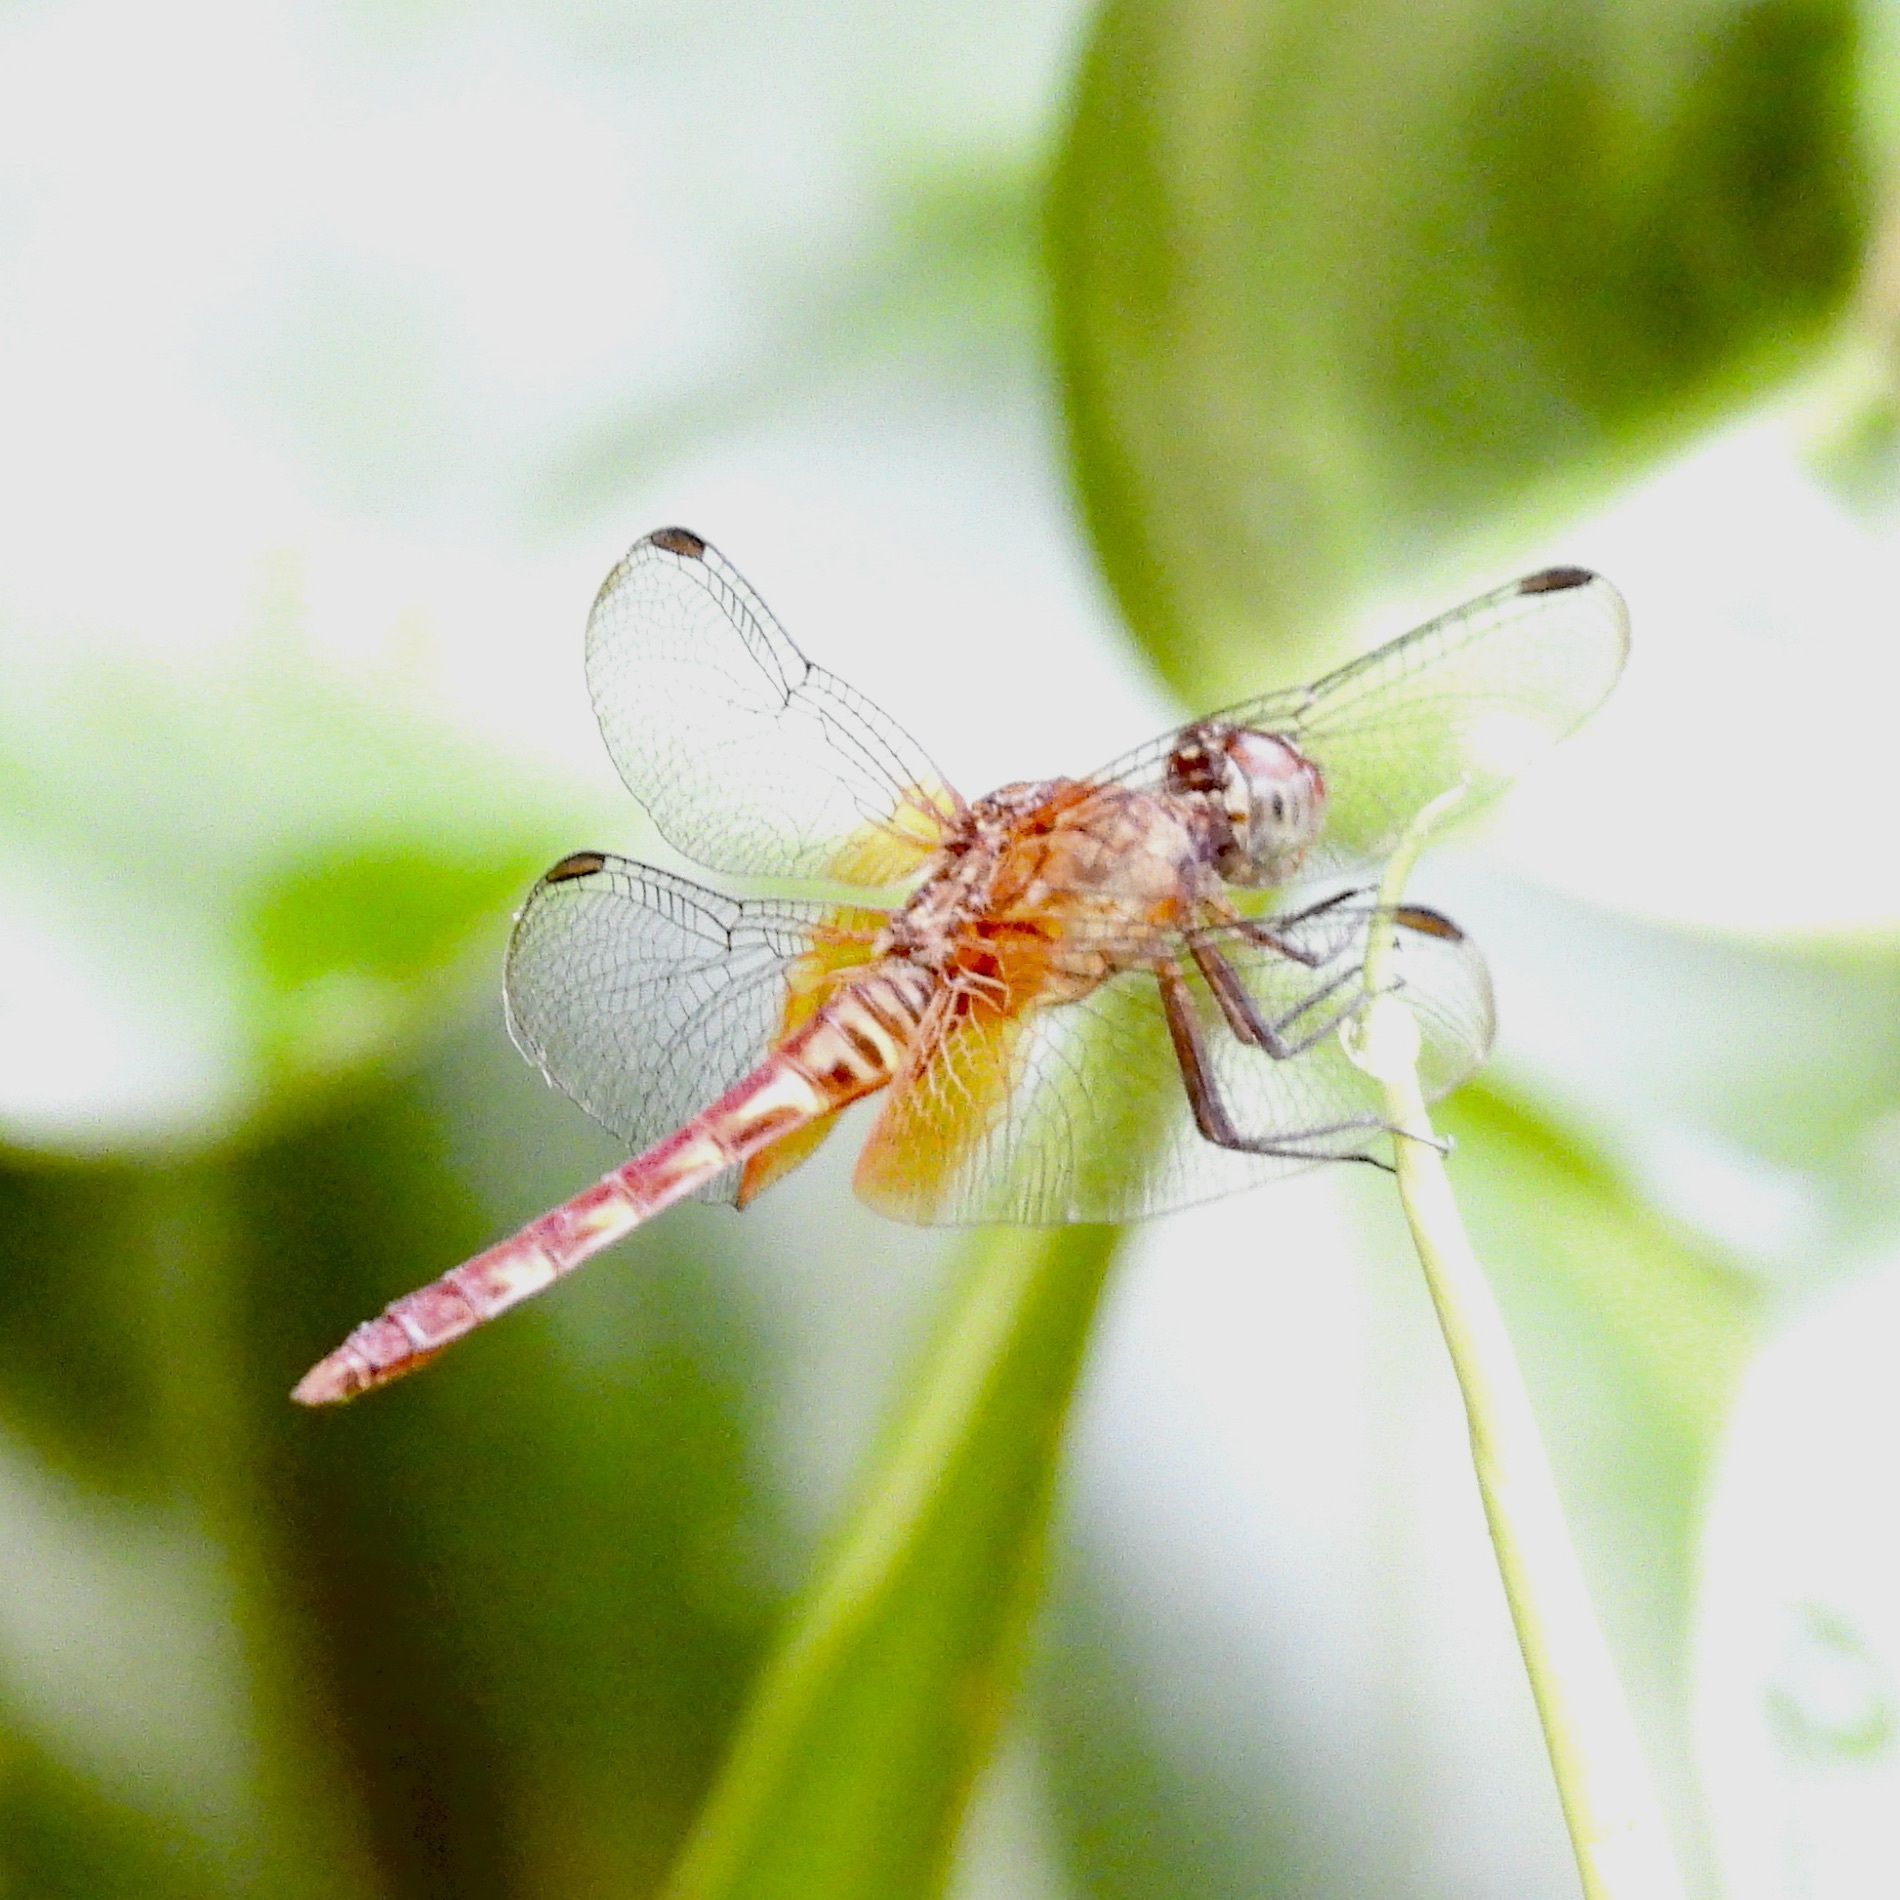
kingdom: Animalia
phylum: Arthropoda
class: Insecta
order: Odonata
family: Libellulidae
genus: Erythrodiplax
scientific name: Erythrodiplax fervida
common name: Red-mantled dragonlet
